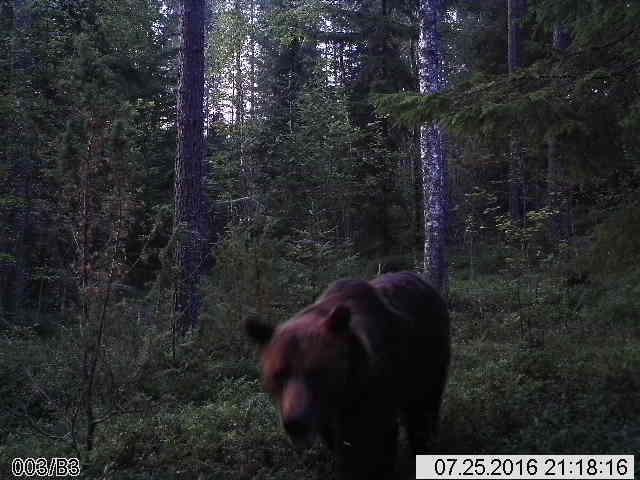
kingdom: Animalia
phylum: Chordata
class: Mammalia
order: Carnivora
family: Ursidae
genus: Ursus
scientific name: Ursus arctos
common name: Brown bear
